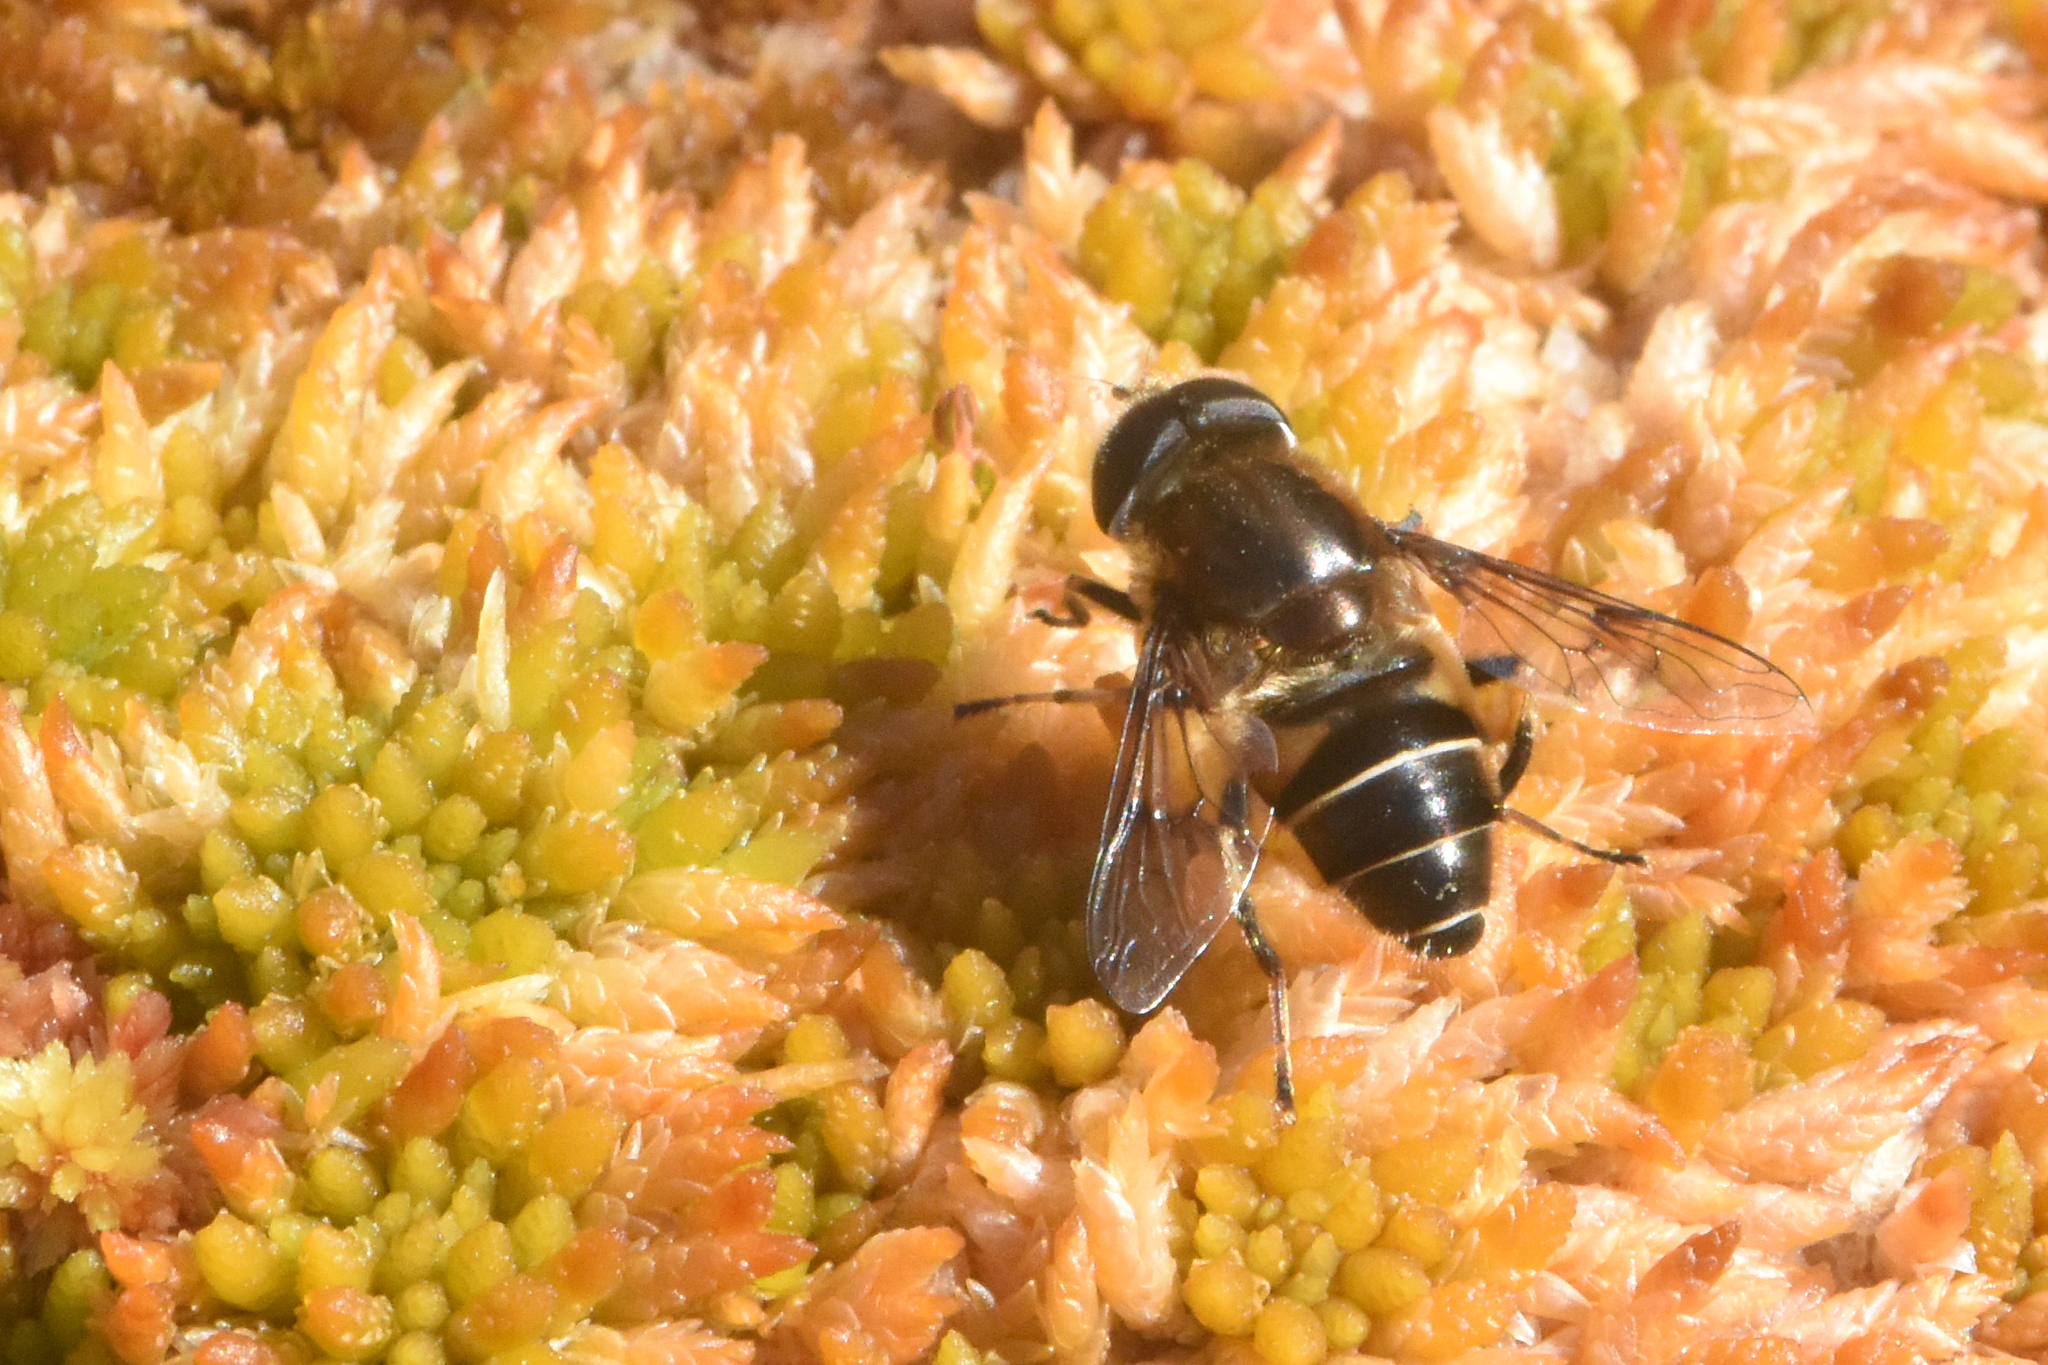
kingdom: Animalia
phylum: Arthropoda
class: Insecta
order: Diptera
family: Syrphidae
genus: Eristalis
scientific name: Eristalis nemorum
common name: Orange-spined drone fly
